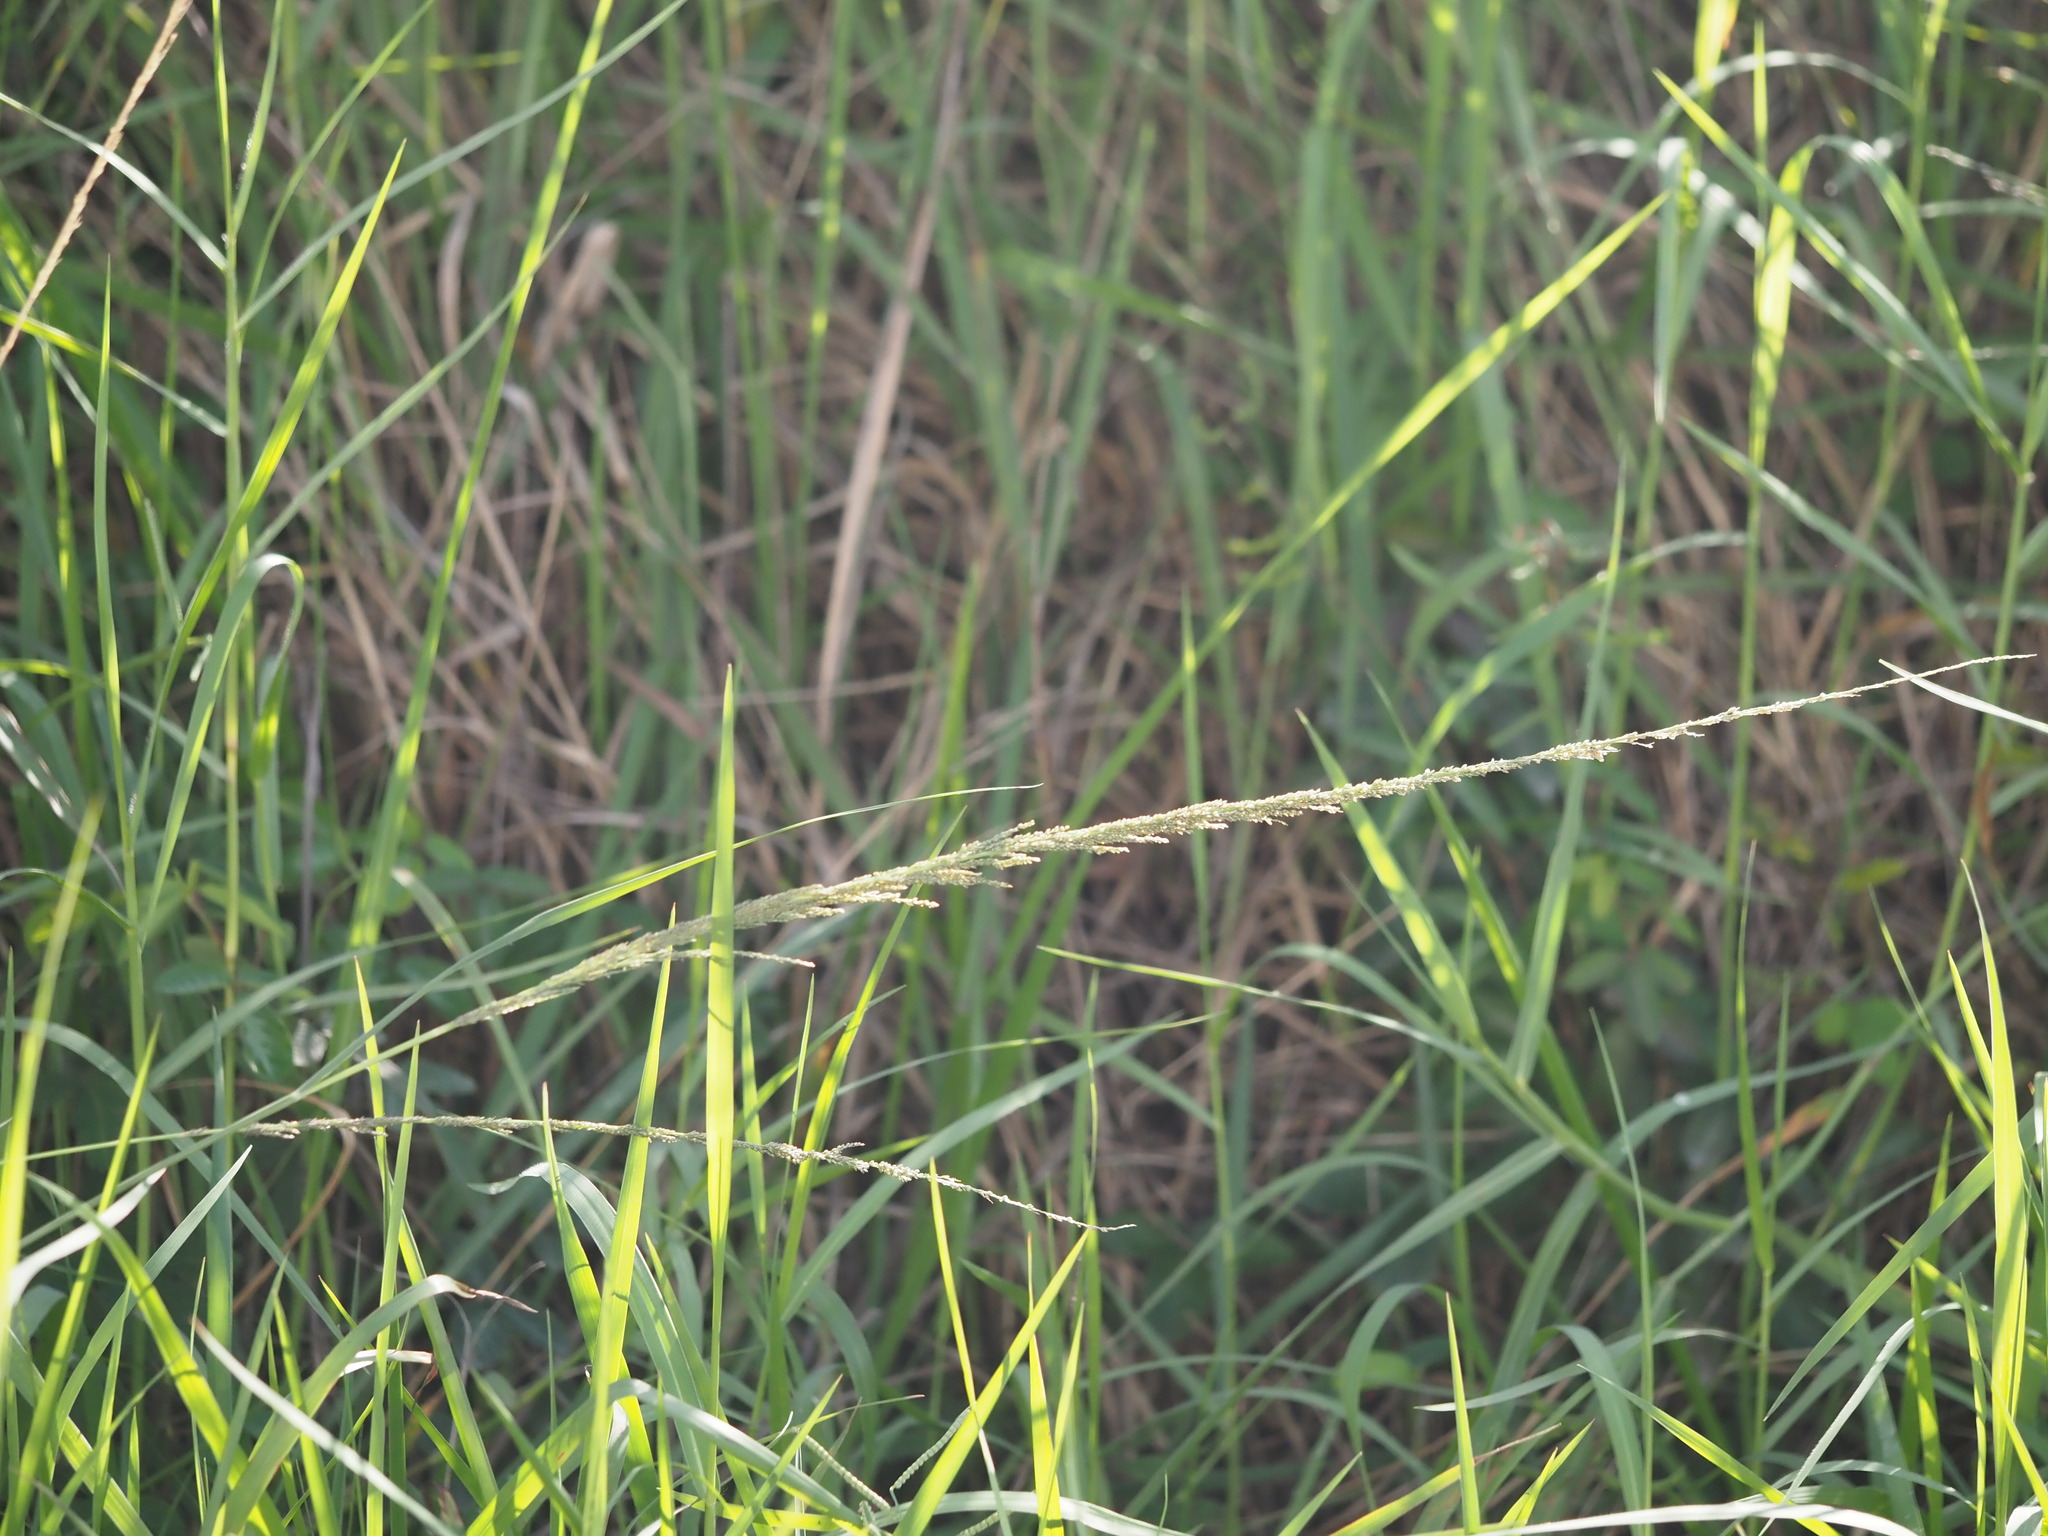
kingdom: Plantae
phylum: Tracheophyta
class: Liliopsida
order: Poales
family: Poaceae
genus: Sporobolus
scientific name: Sporobolus elongatus
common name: Rat tail grass
